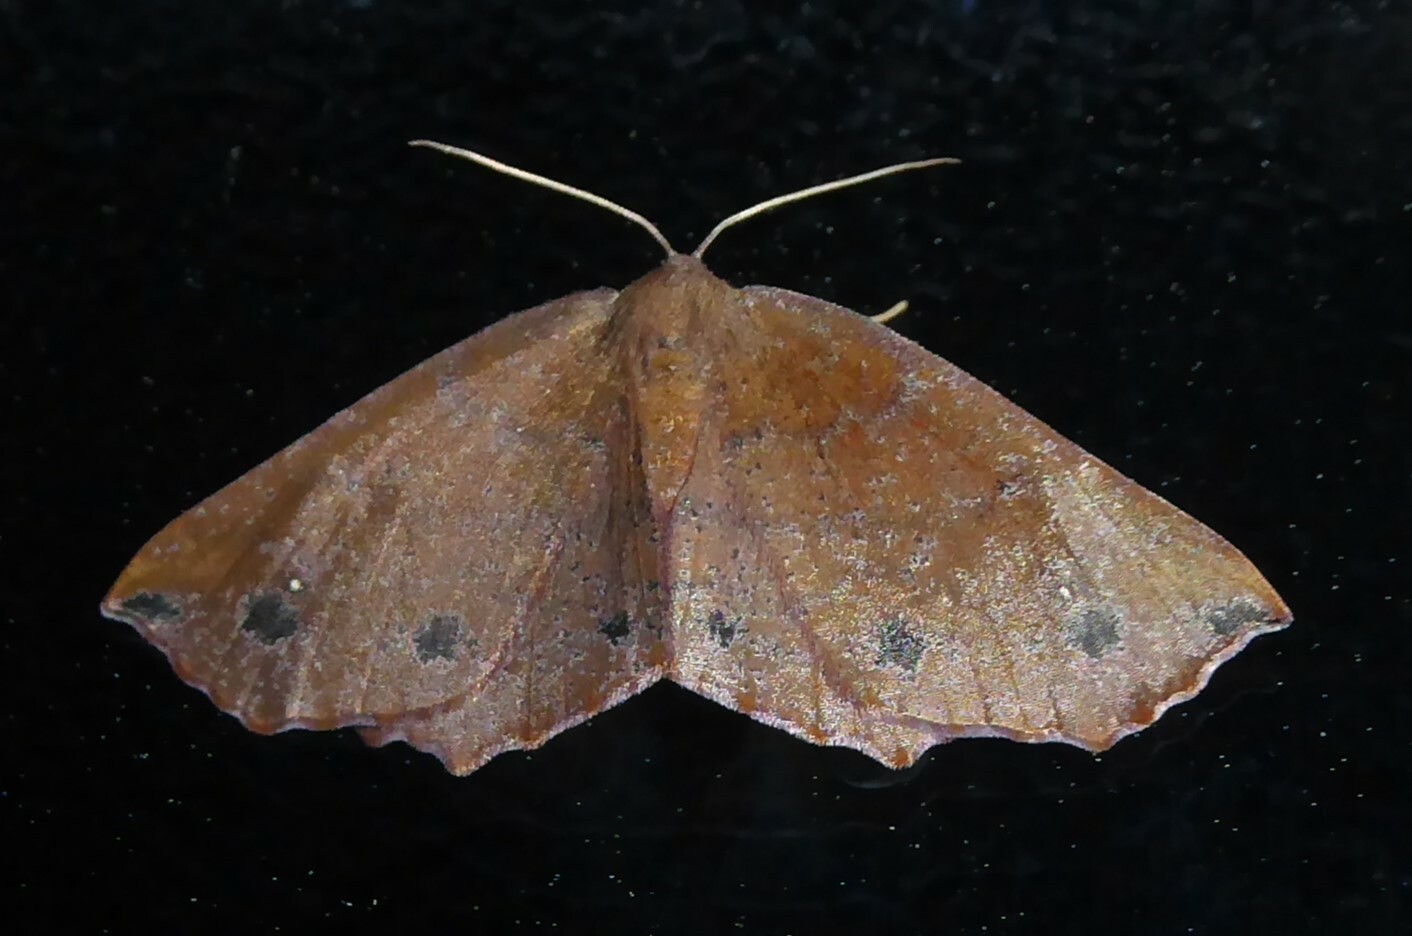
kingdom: Animalia
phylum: Arthropoda
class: Insecta
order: Lepidoptera
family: Geometridae
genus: Xyridacma
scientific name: Xyridacma ustaria
